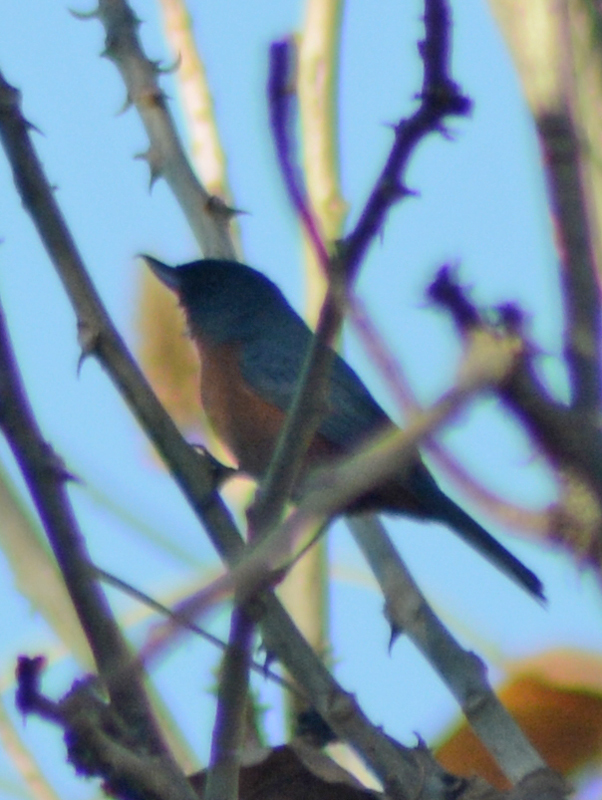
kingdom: Animalia
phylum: Chordata
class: Aves
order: Passeriformes
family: Thraupidae
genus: Diglossa
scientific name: Diglossa baritula
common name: Cinnamon-bellied flowerpiercer
